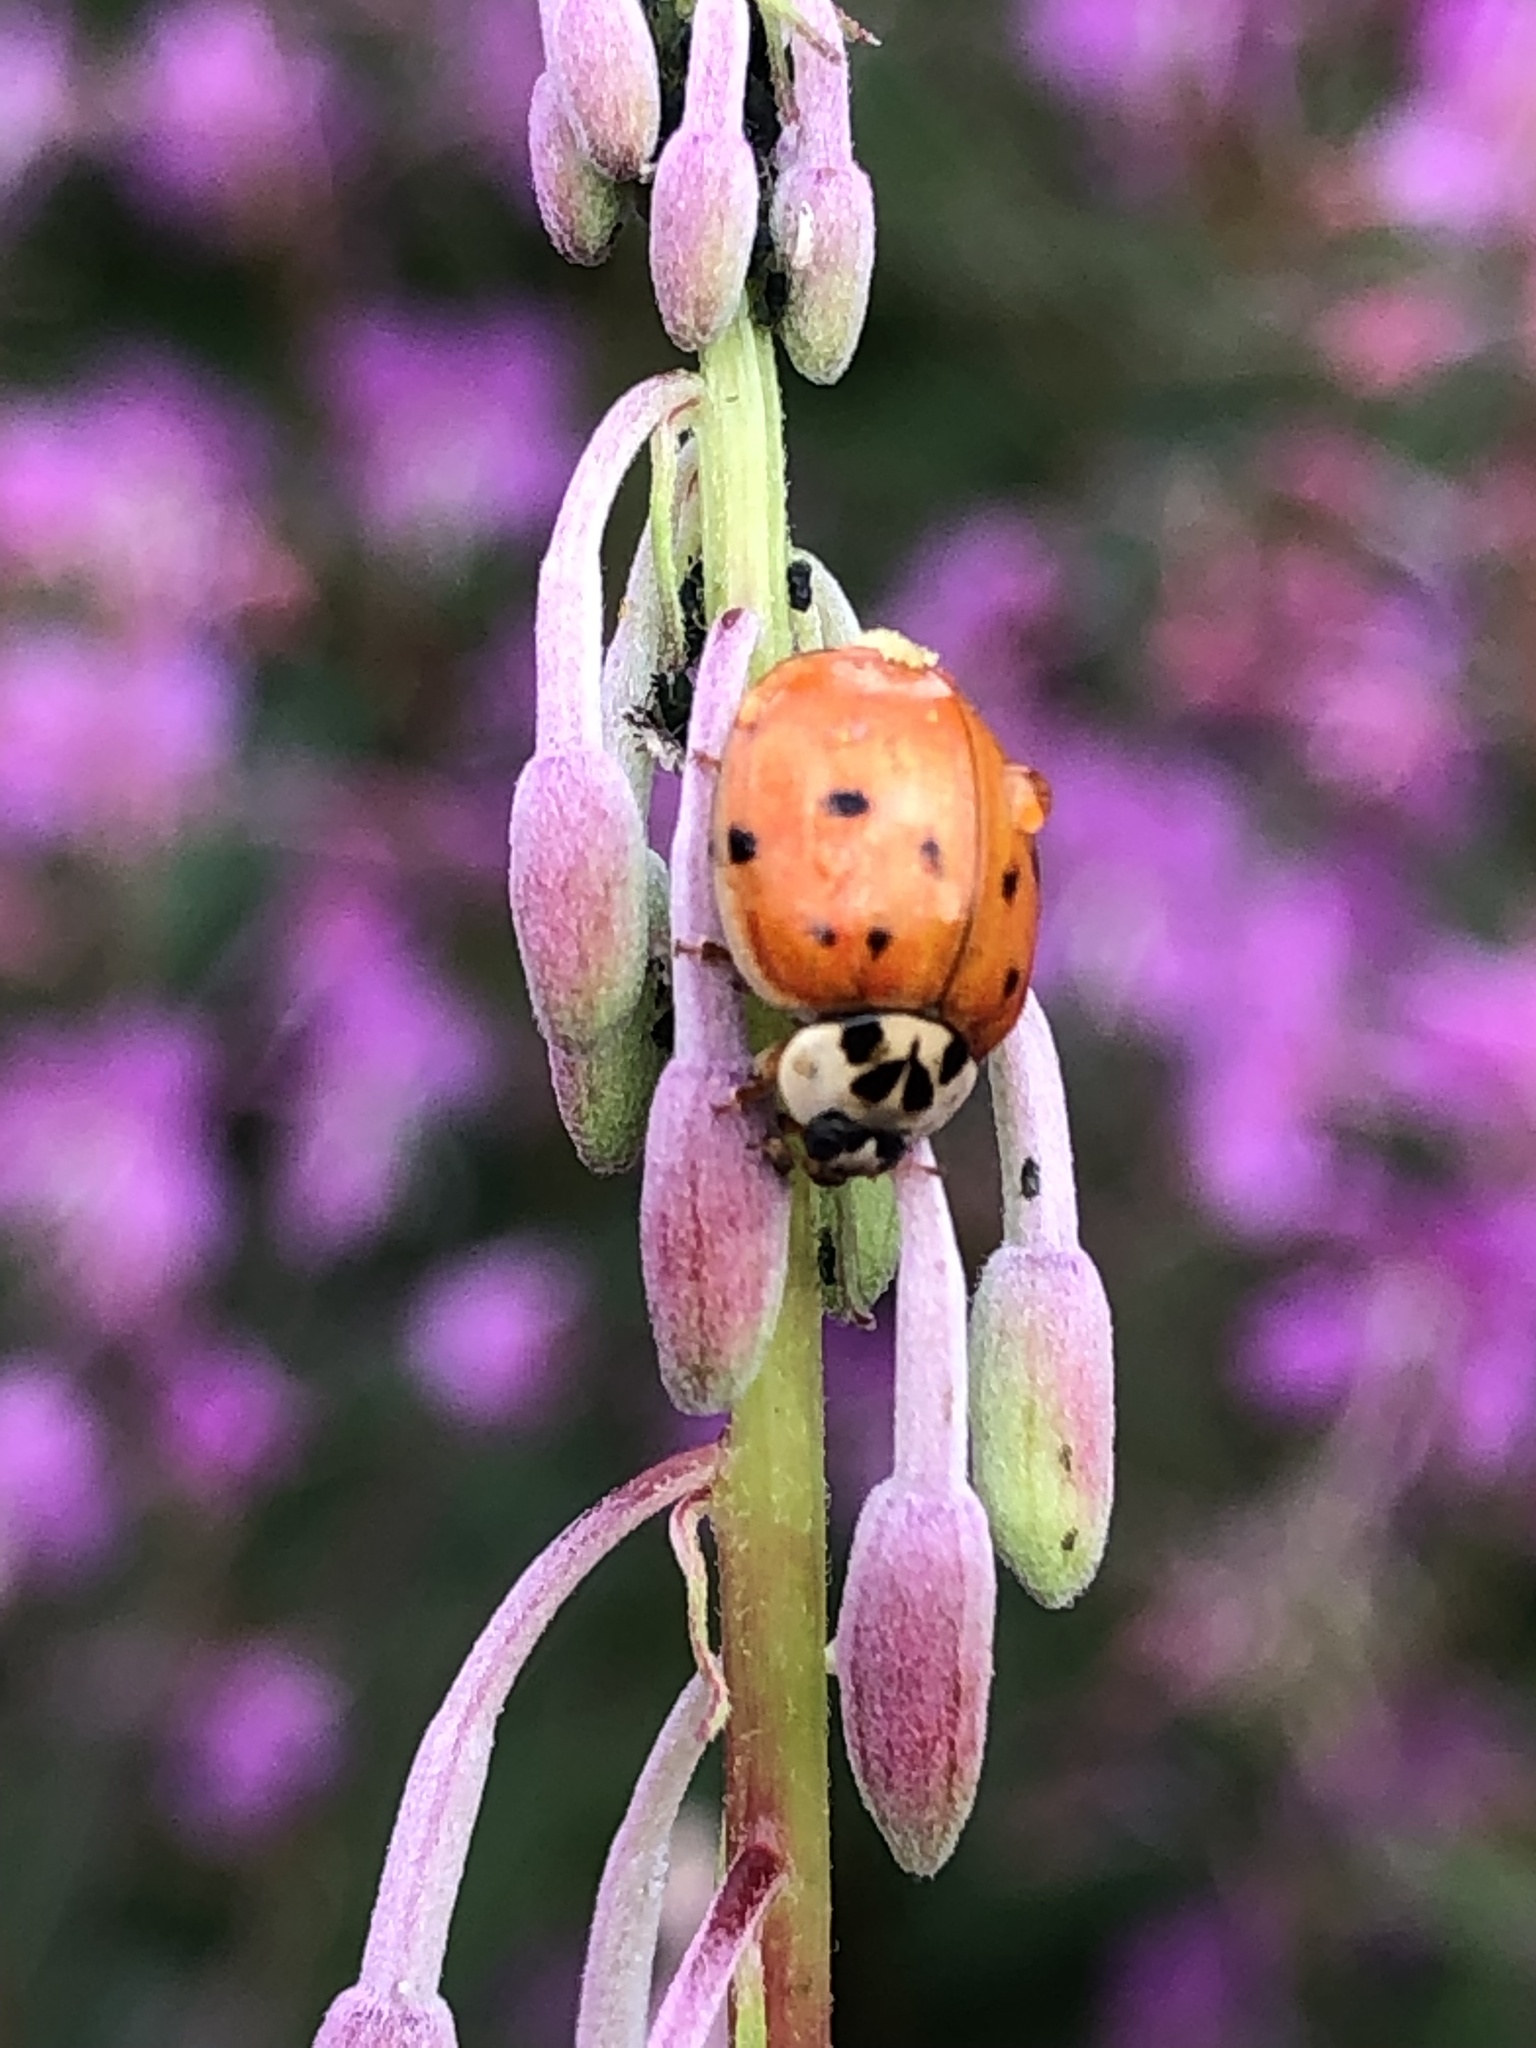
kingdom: Animalia
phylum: Arthropoda
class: Insecta
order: Coleoptera
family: Coccinellidae
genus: Harmonia
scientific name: Harmonia axyridis
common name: Harlequin ladybird
